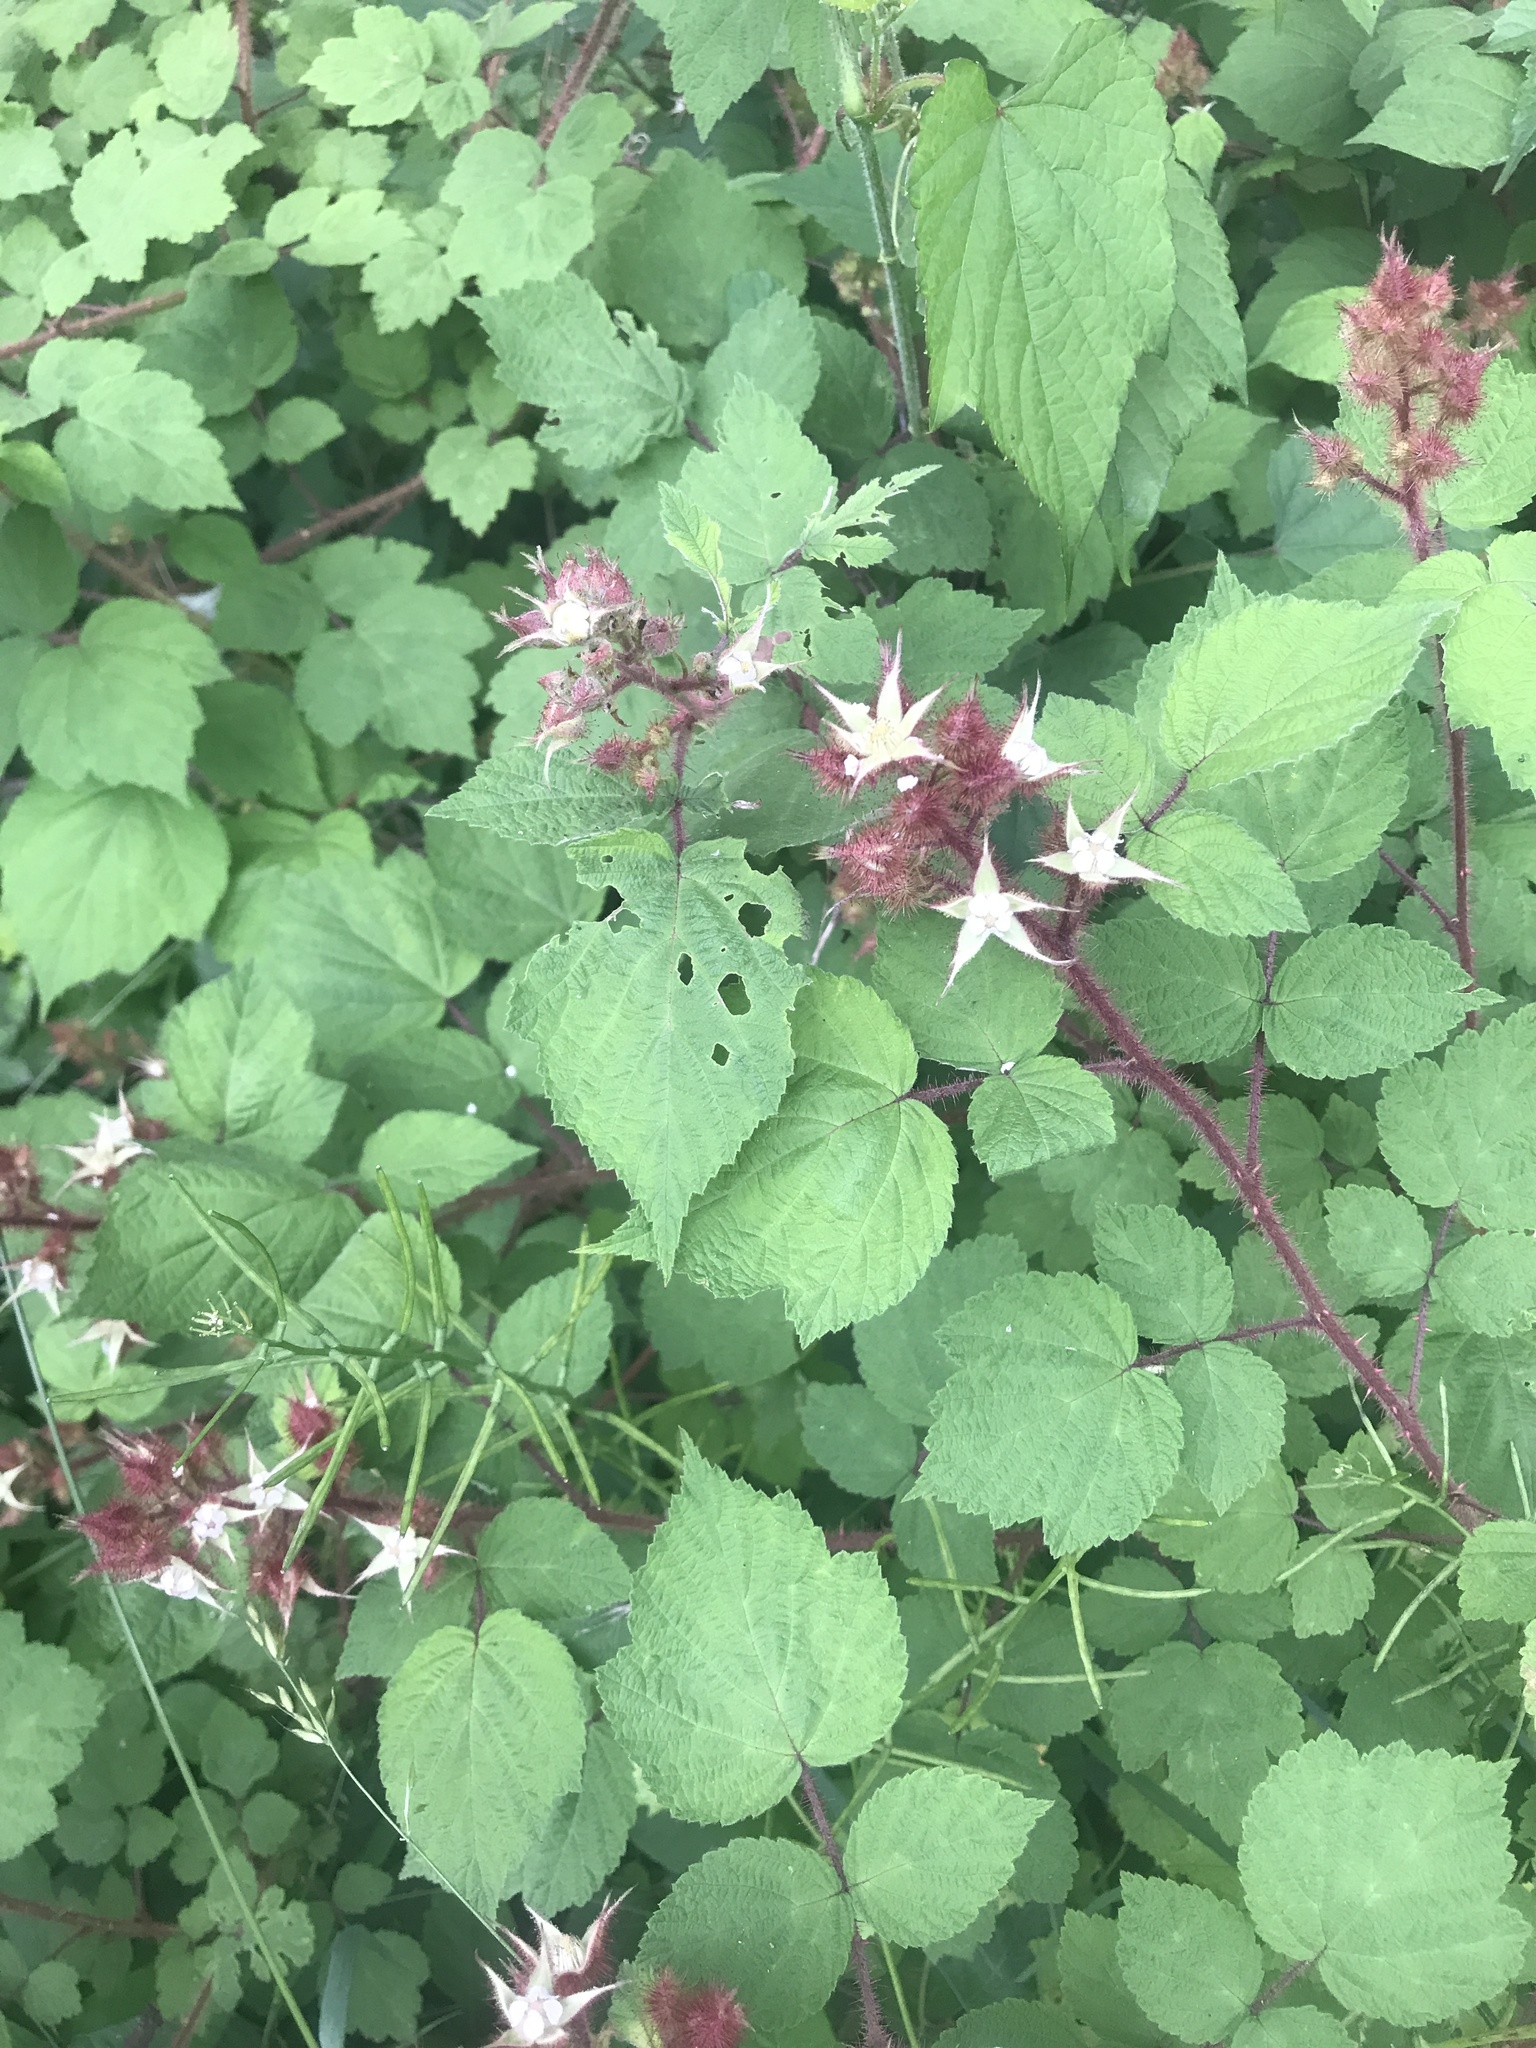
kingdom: Plantae
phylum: Tracheophyta
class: Magnoliopsida
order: Rosales
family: Rosaceae
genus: Rubus
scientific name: Rubus phoenicolasius
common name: Japanese wineberry
